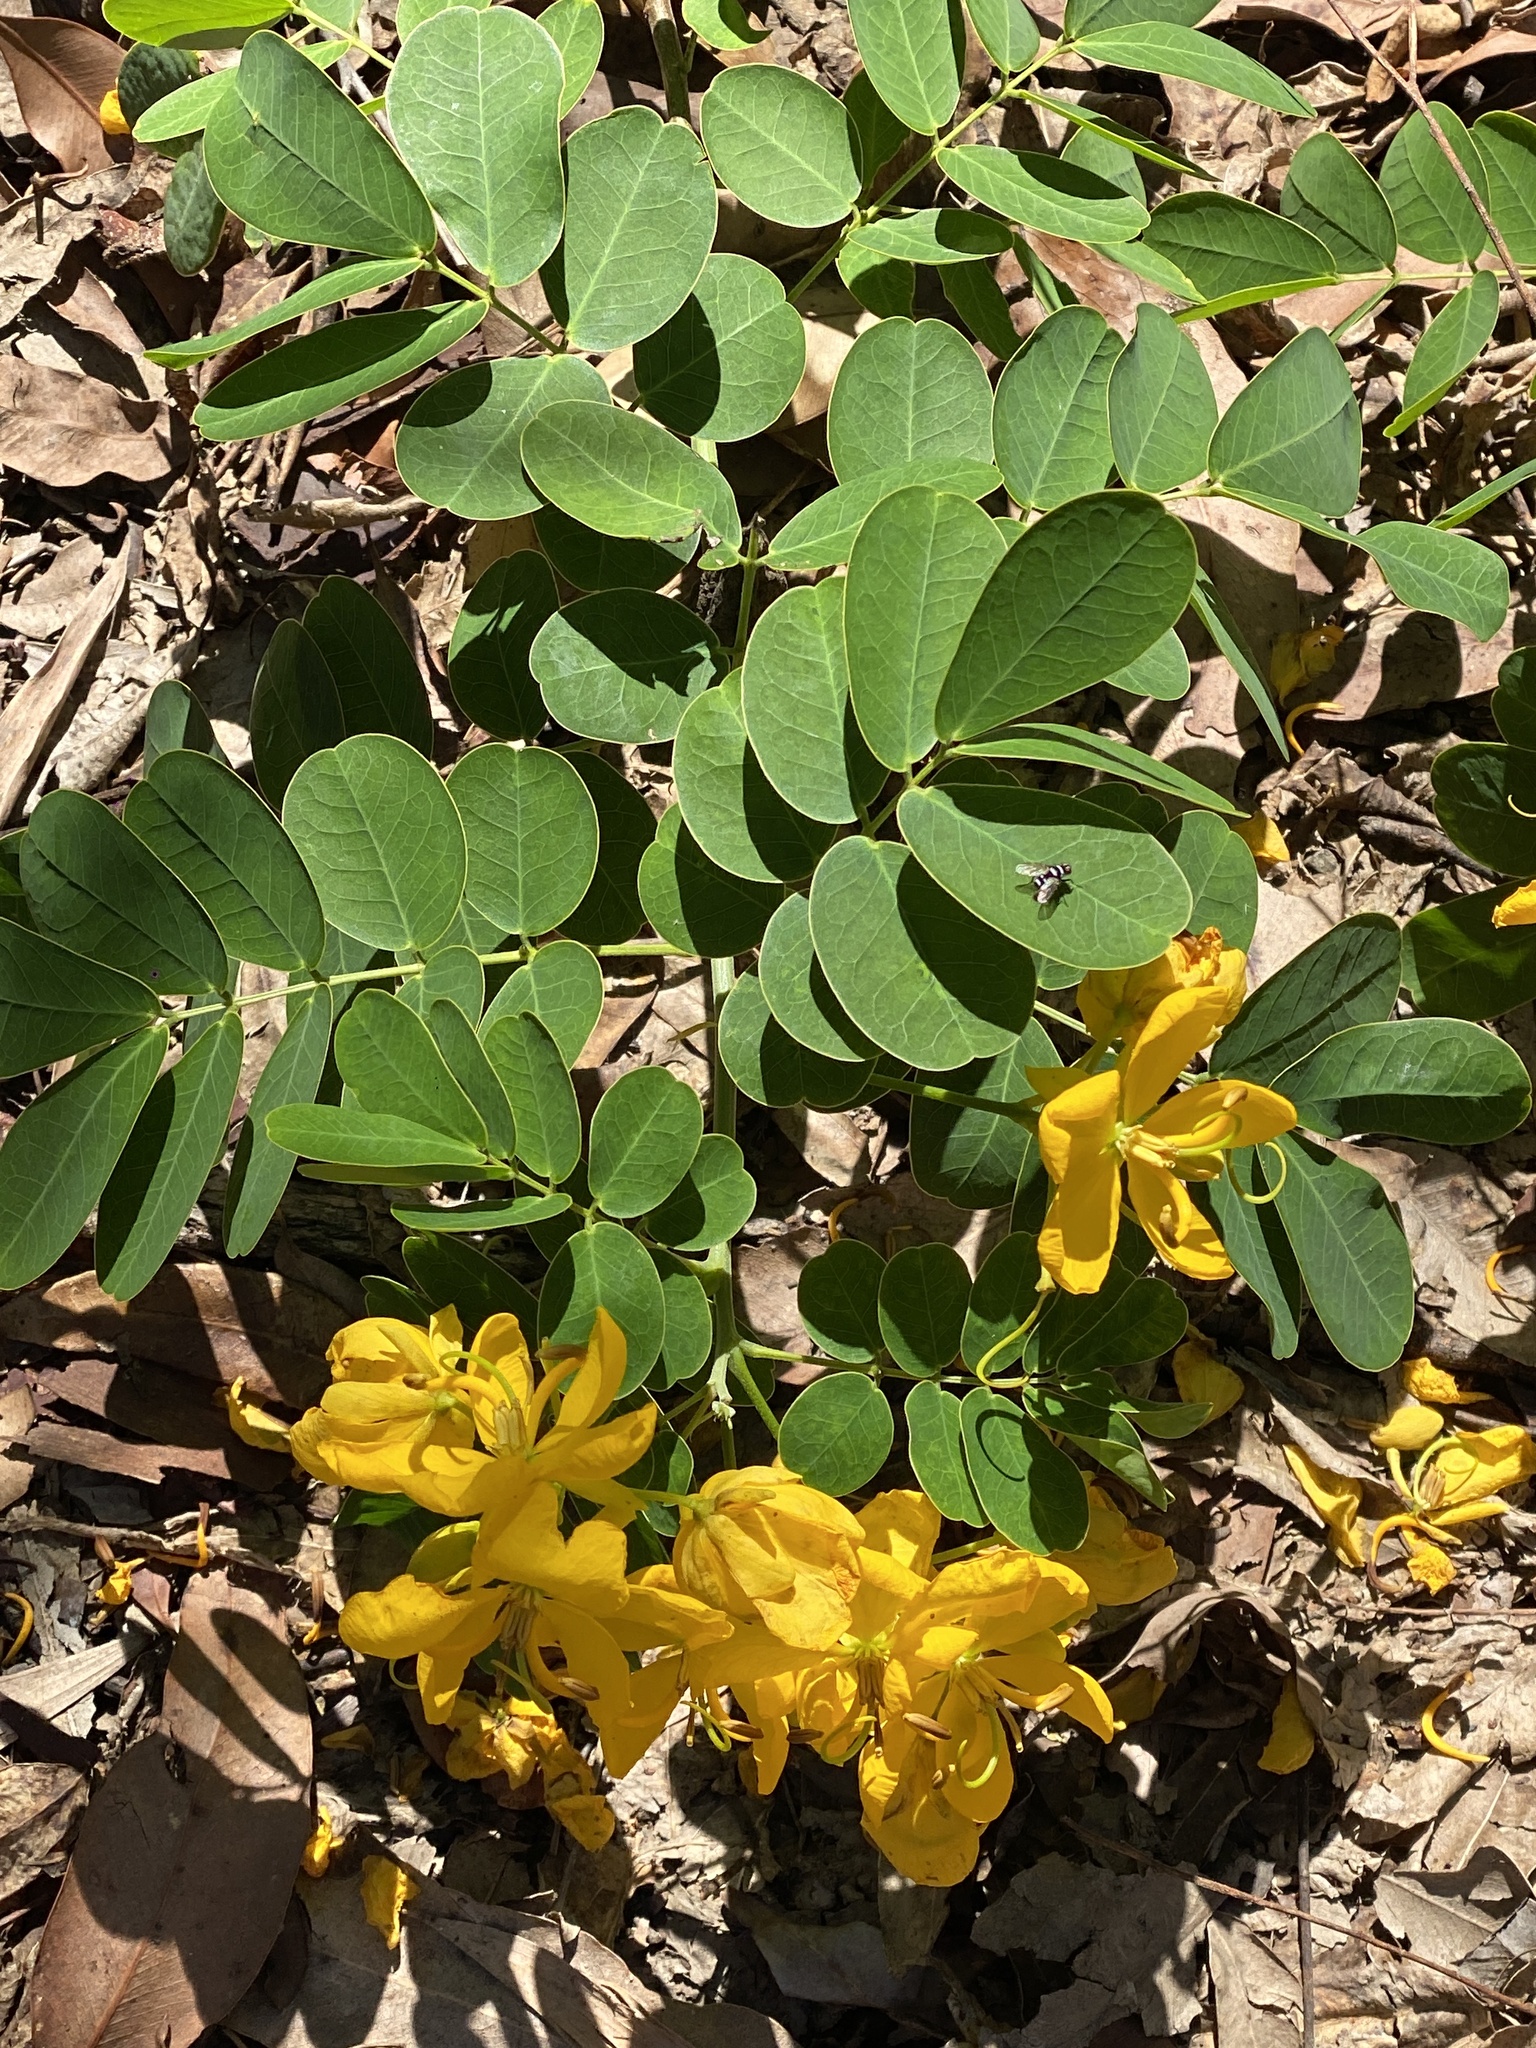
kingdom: Plantae
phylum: Tracheophyta
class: Magnoliopsida
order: Fabales
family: Fabaceae
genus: Senna
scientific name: Senna pendula
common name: Easter cassia
